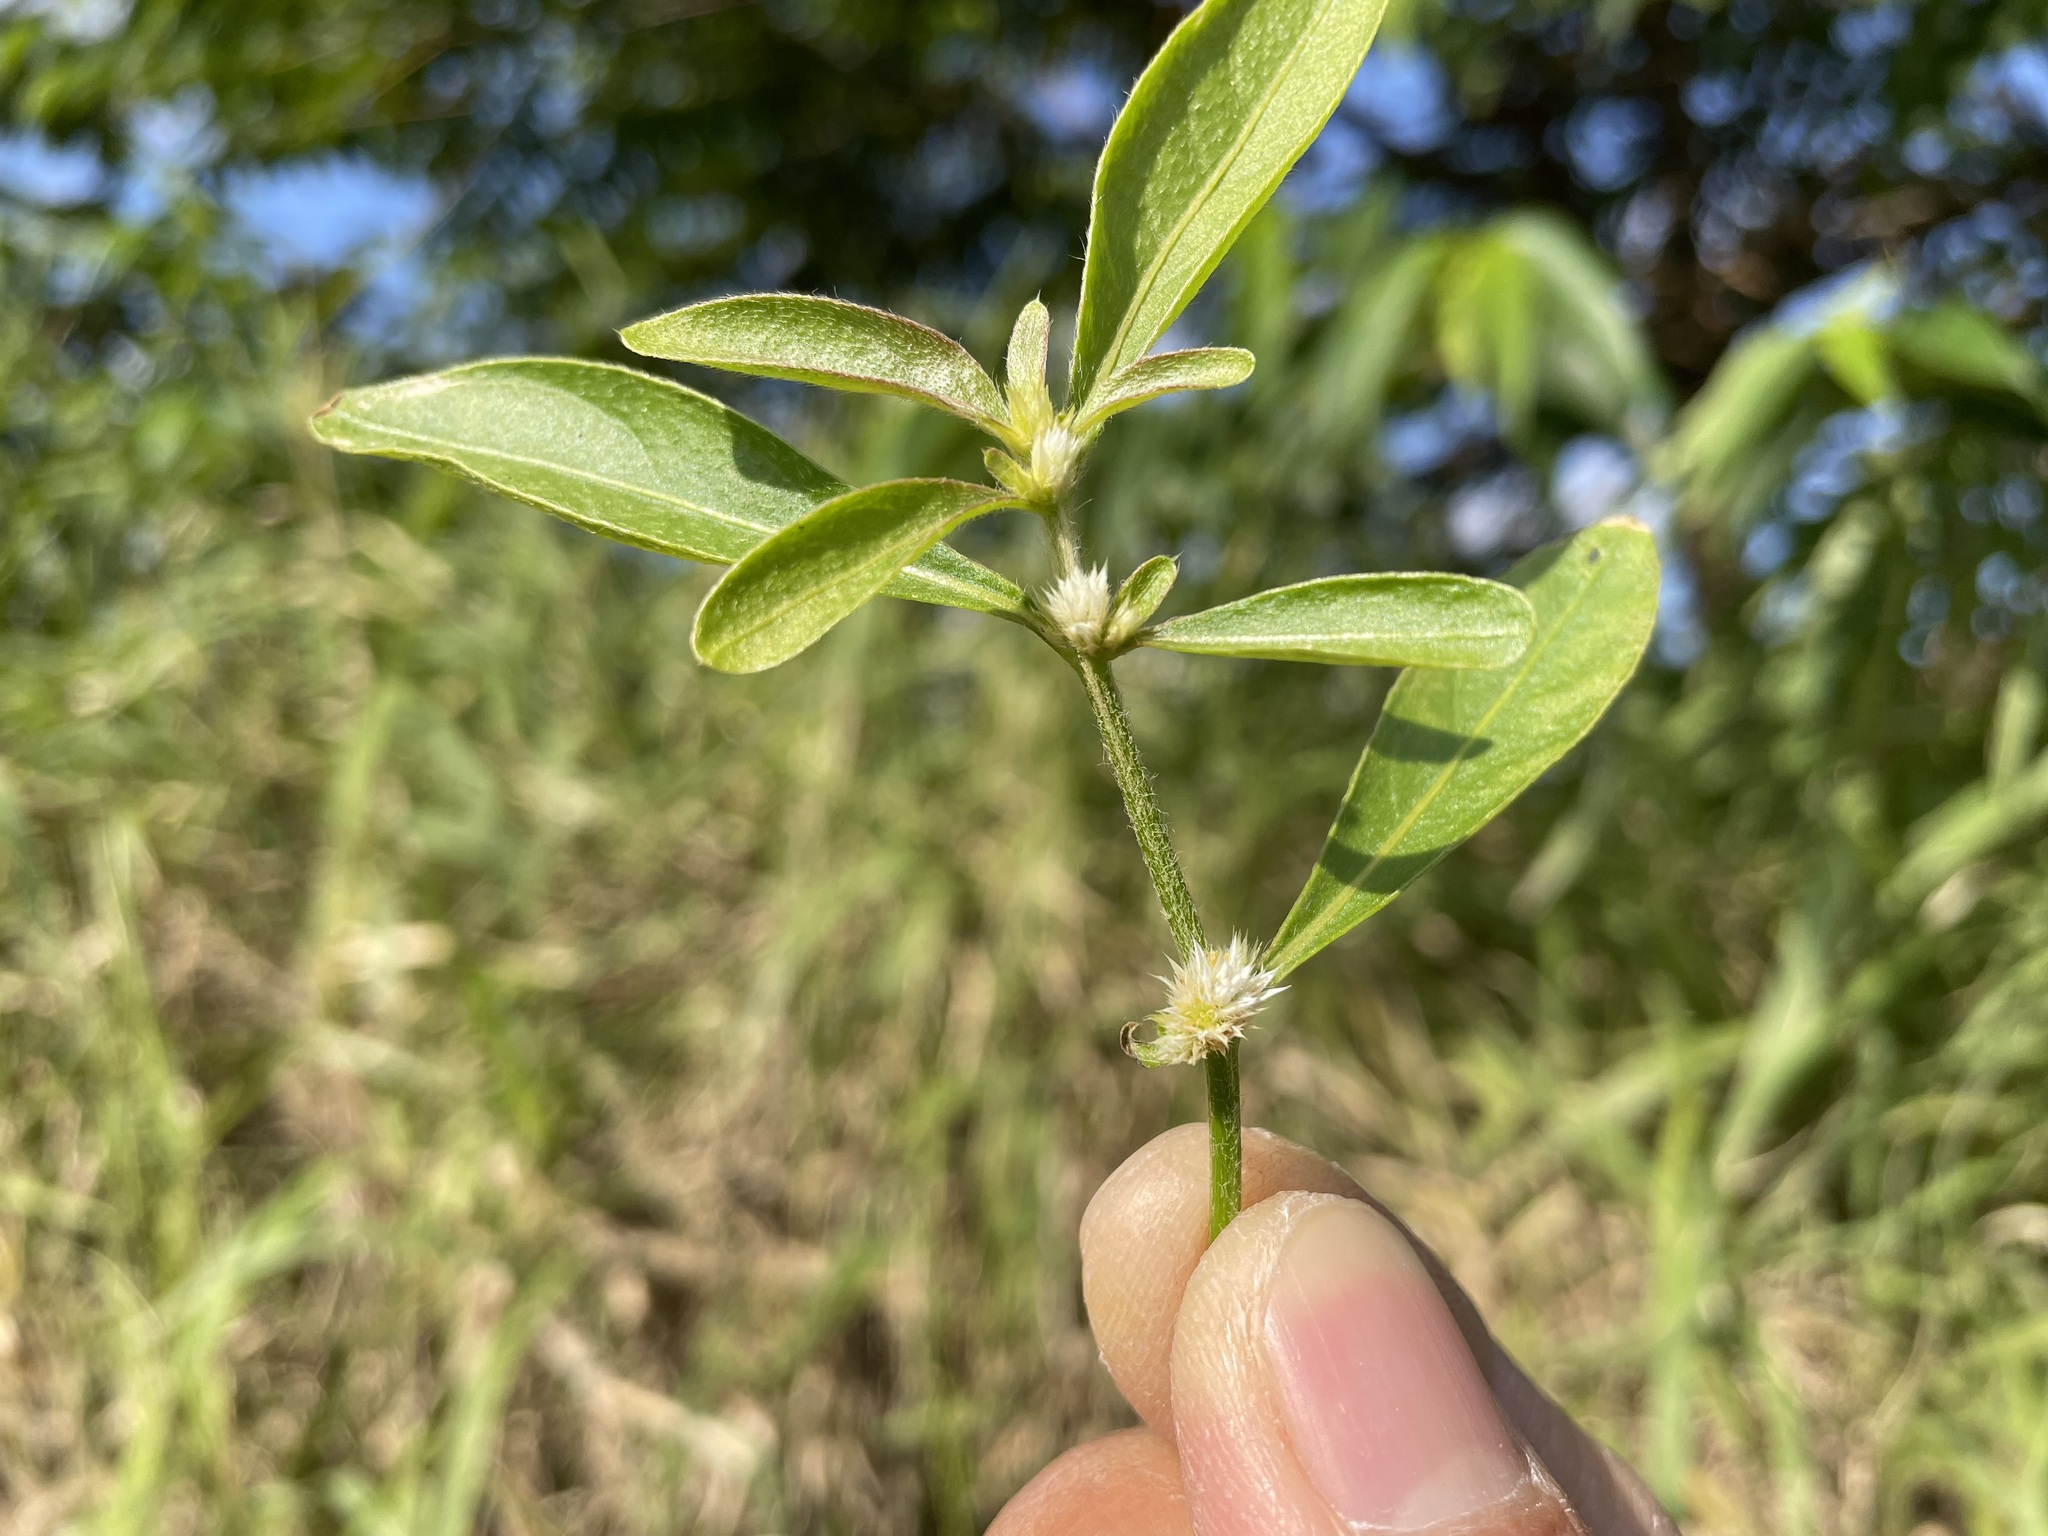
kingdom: Plantae
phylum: Tracheophyta
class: Magnoliopsida
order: Caryophyllales
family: Amaranthaceae
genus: Alternanthera
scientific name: Alternanthera bettzickiana
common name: Calico-plant
